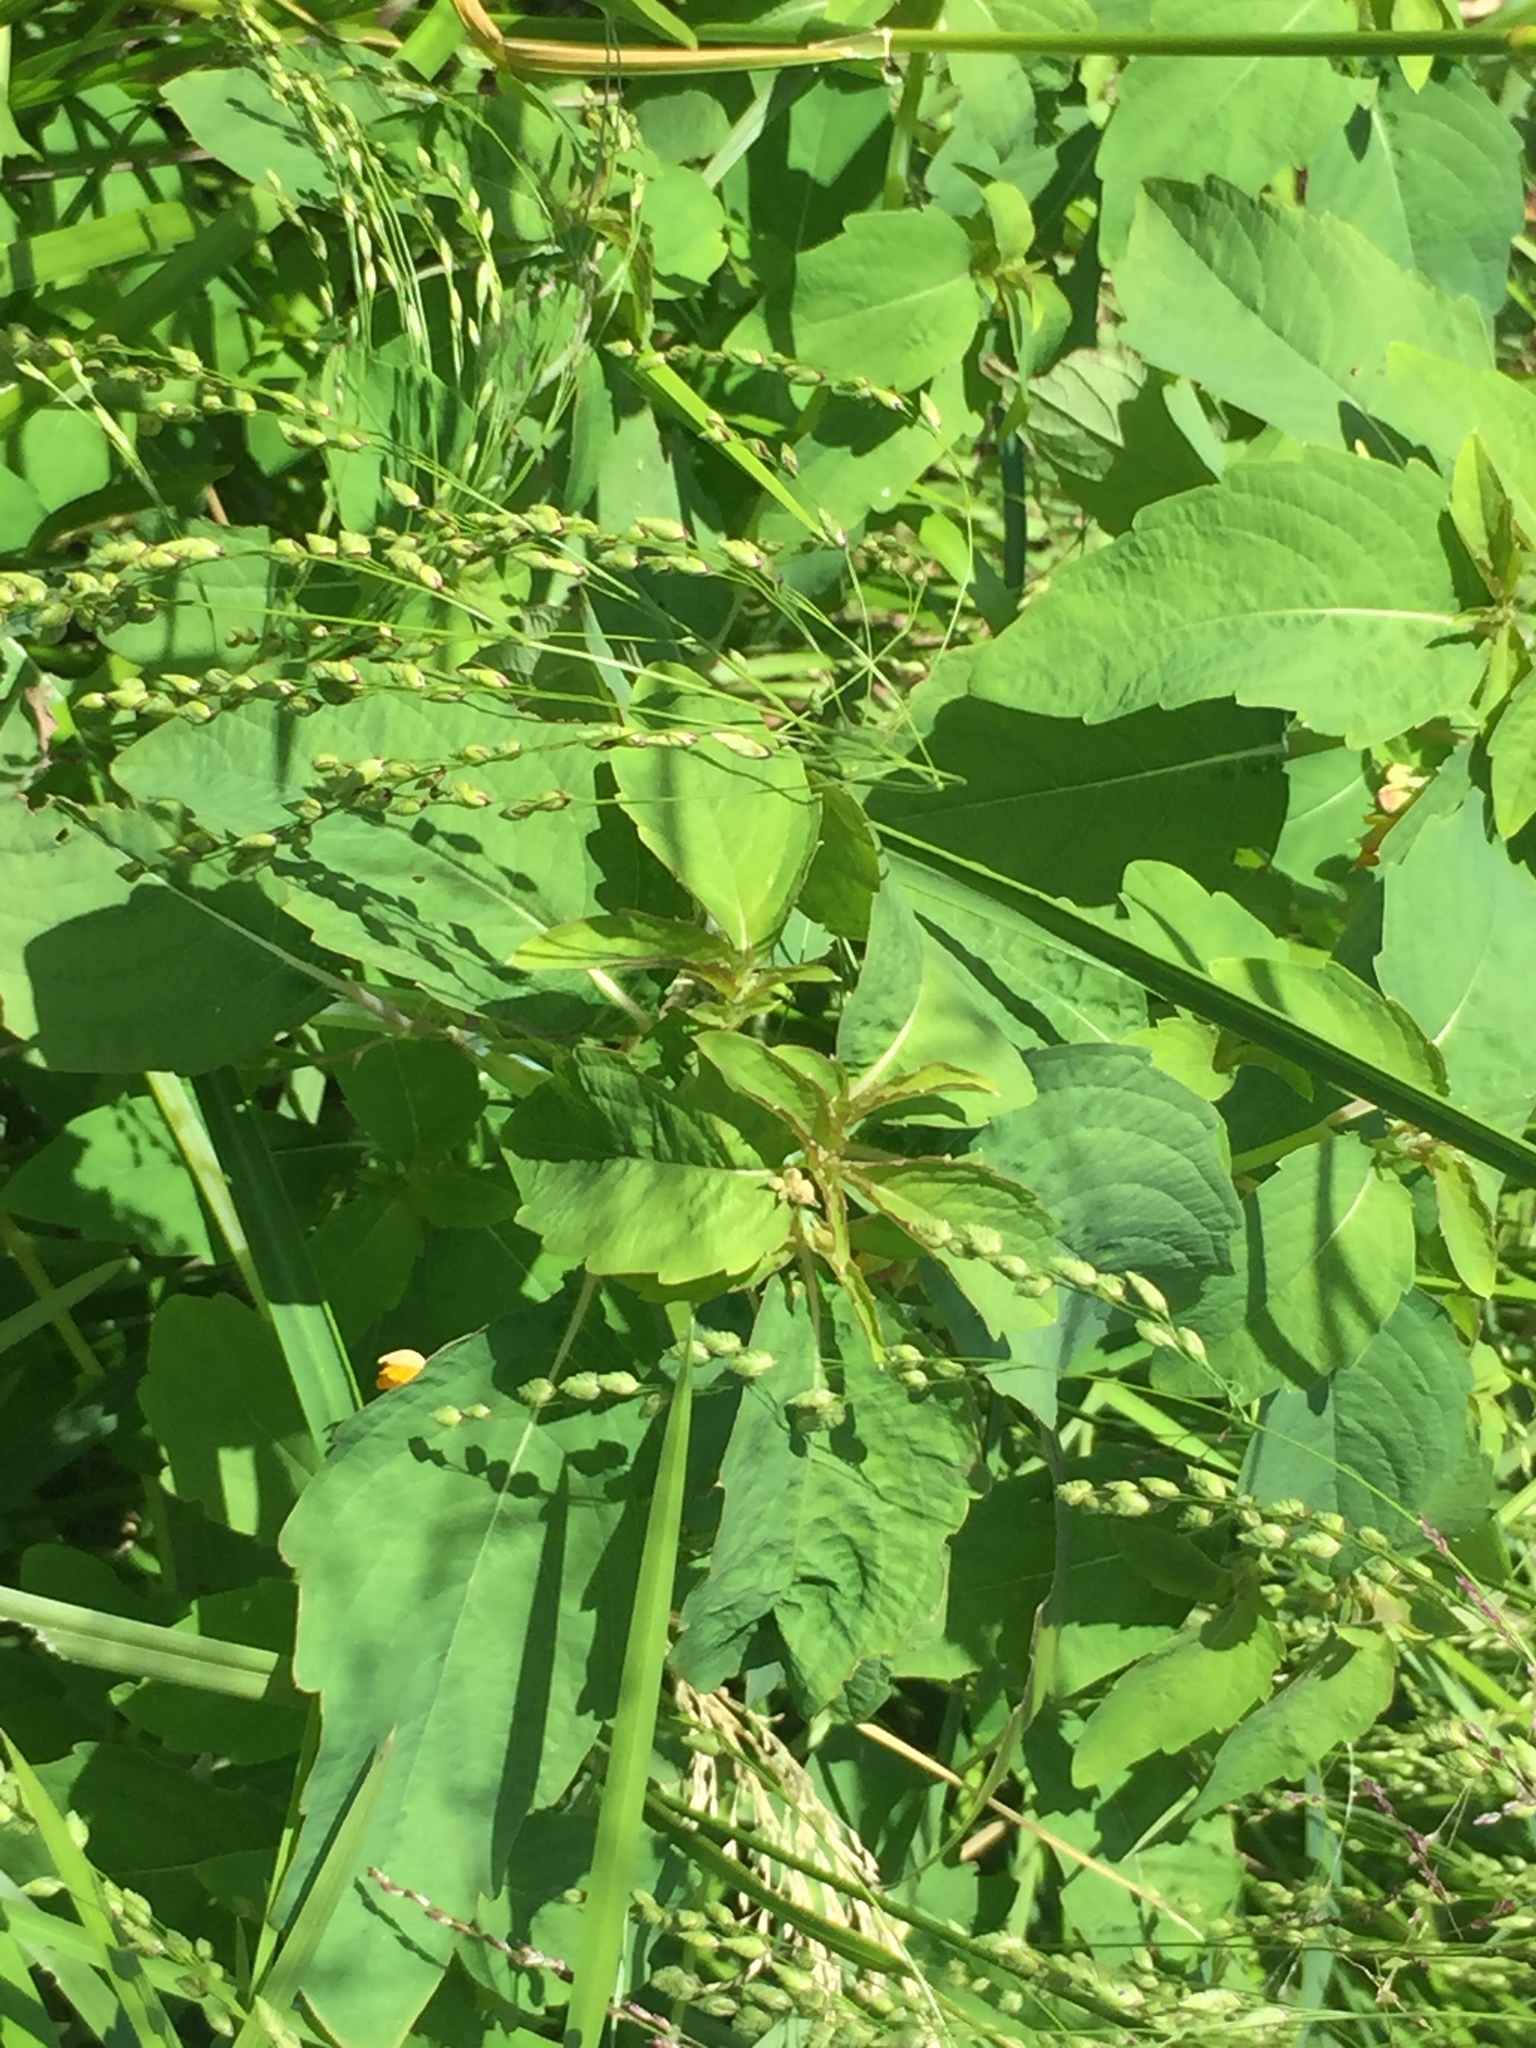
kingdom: Plantae
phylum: Tracheophyta
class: Magnoliopsida
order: Ericales
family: Balsaminaceae
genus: Impatiens
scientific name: Impatiens capensis
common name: Orange balsam
